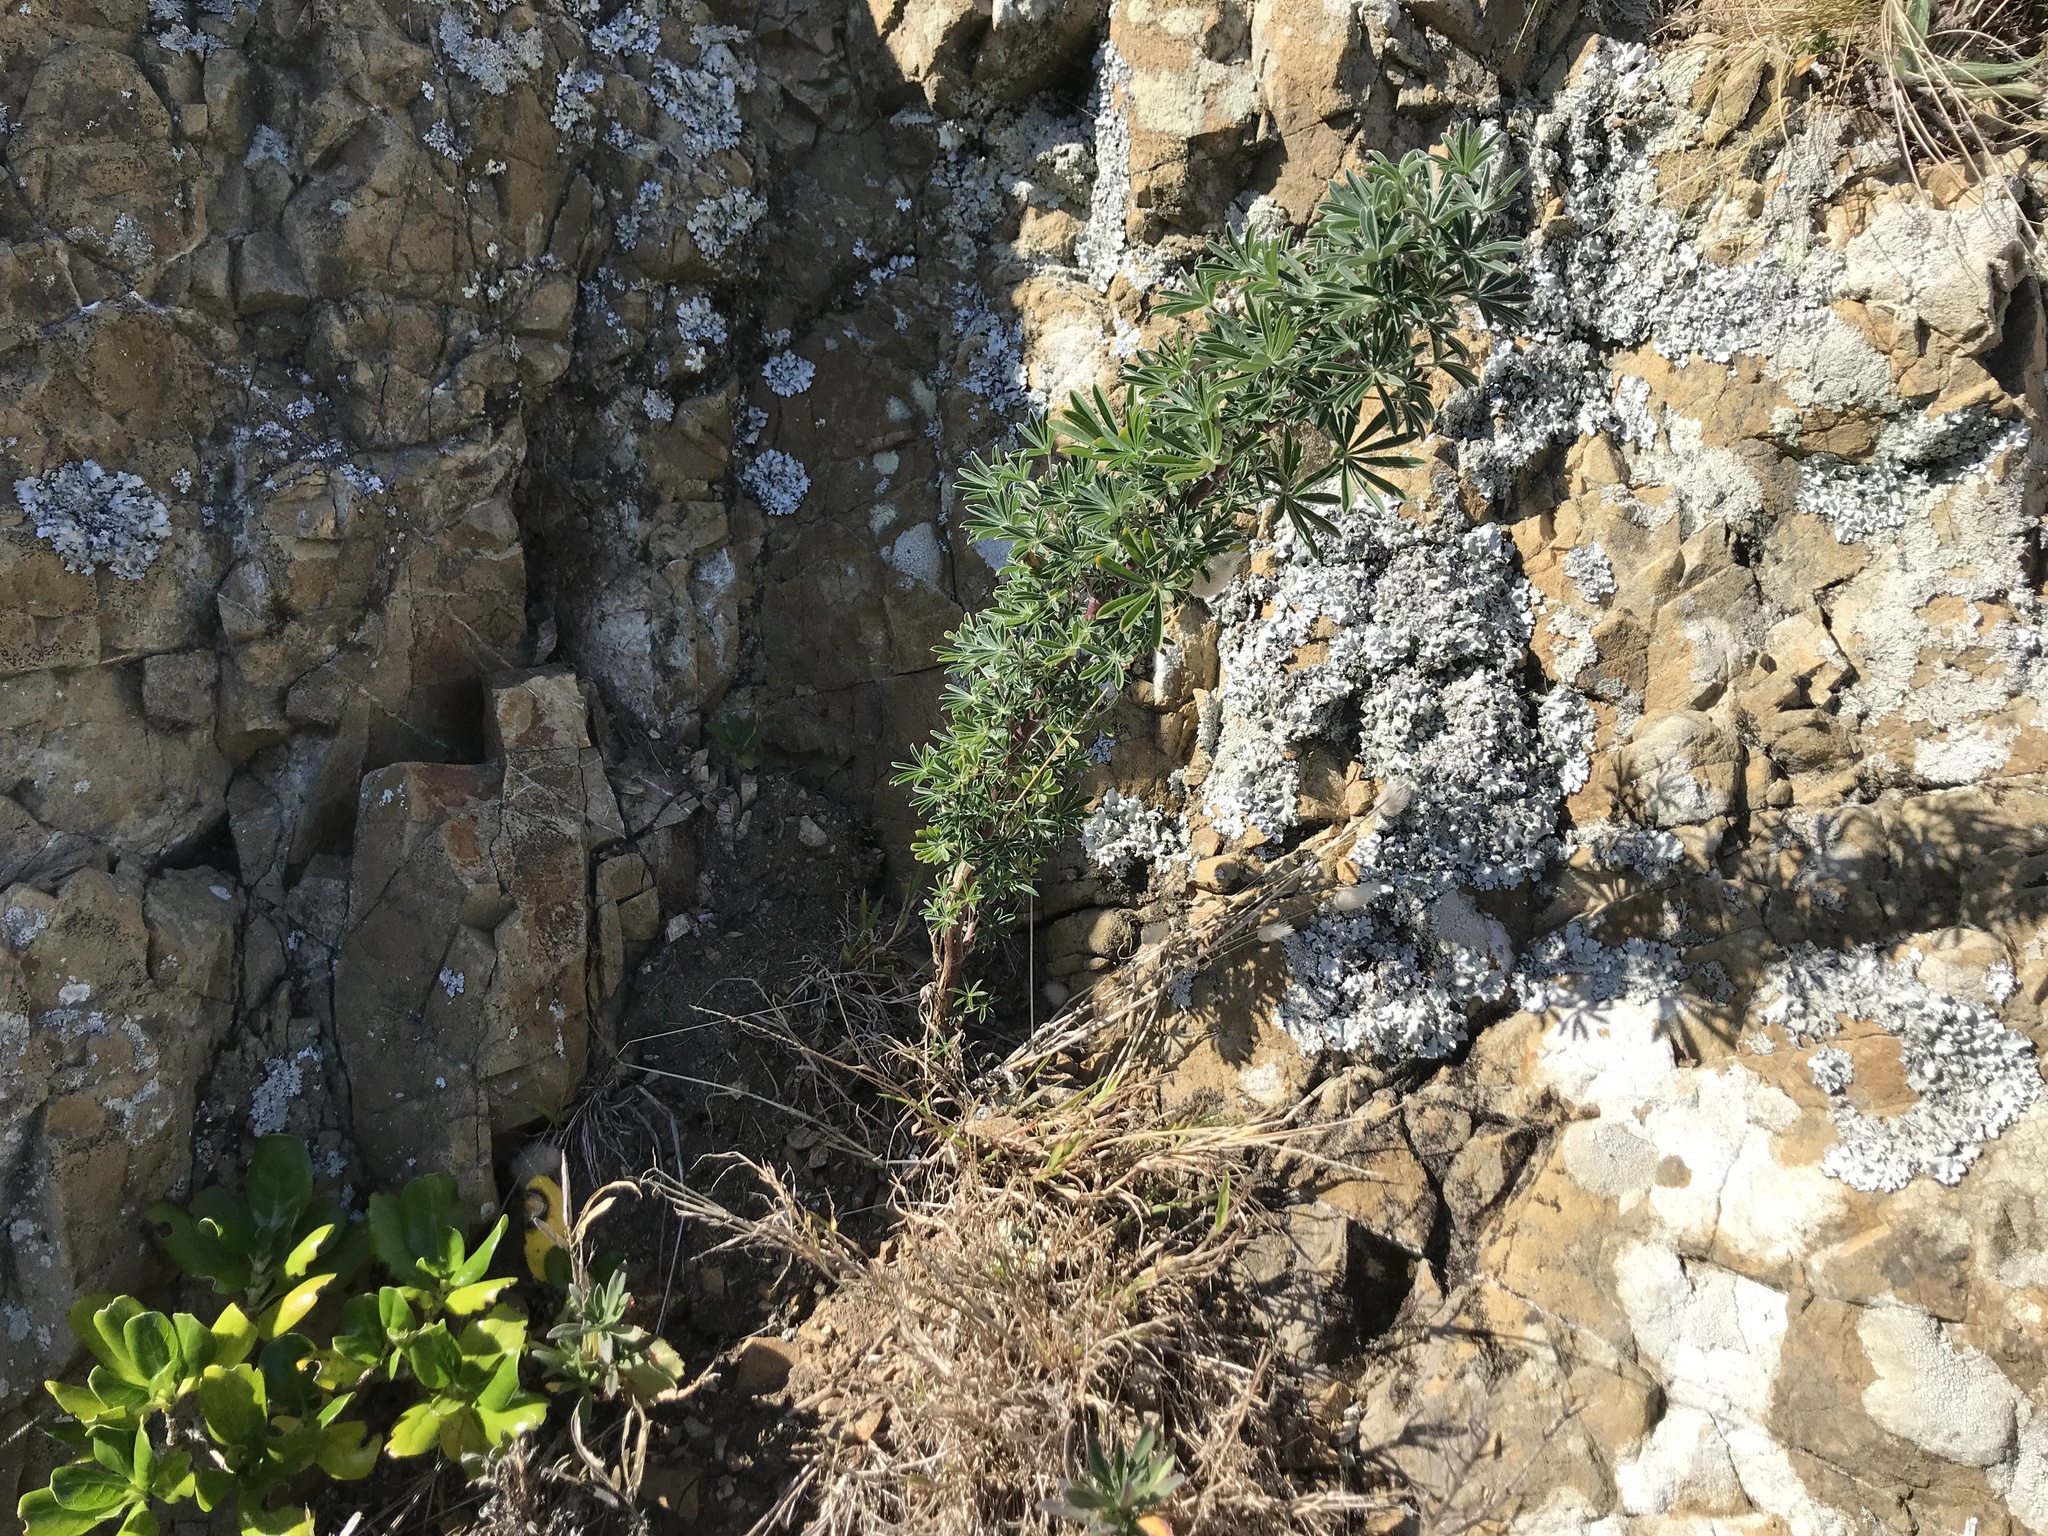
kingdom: Plantae
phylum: Tracheophyta
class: Magnoliopsida
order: Fabales
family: Fabaceae
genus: Lupinus
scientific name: Lupinus arboreus
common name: Yellow bush lupine
